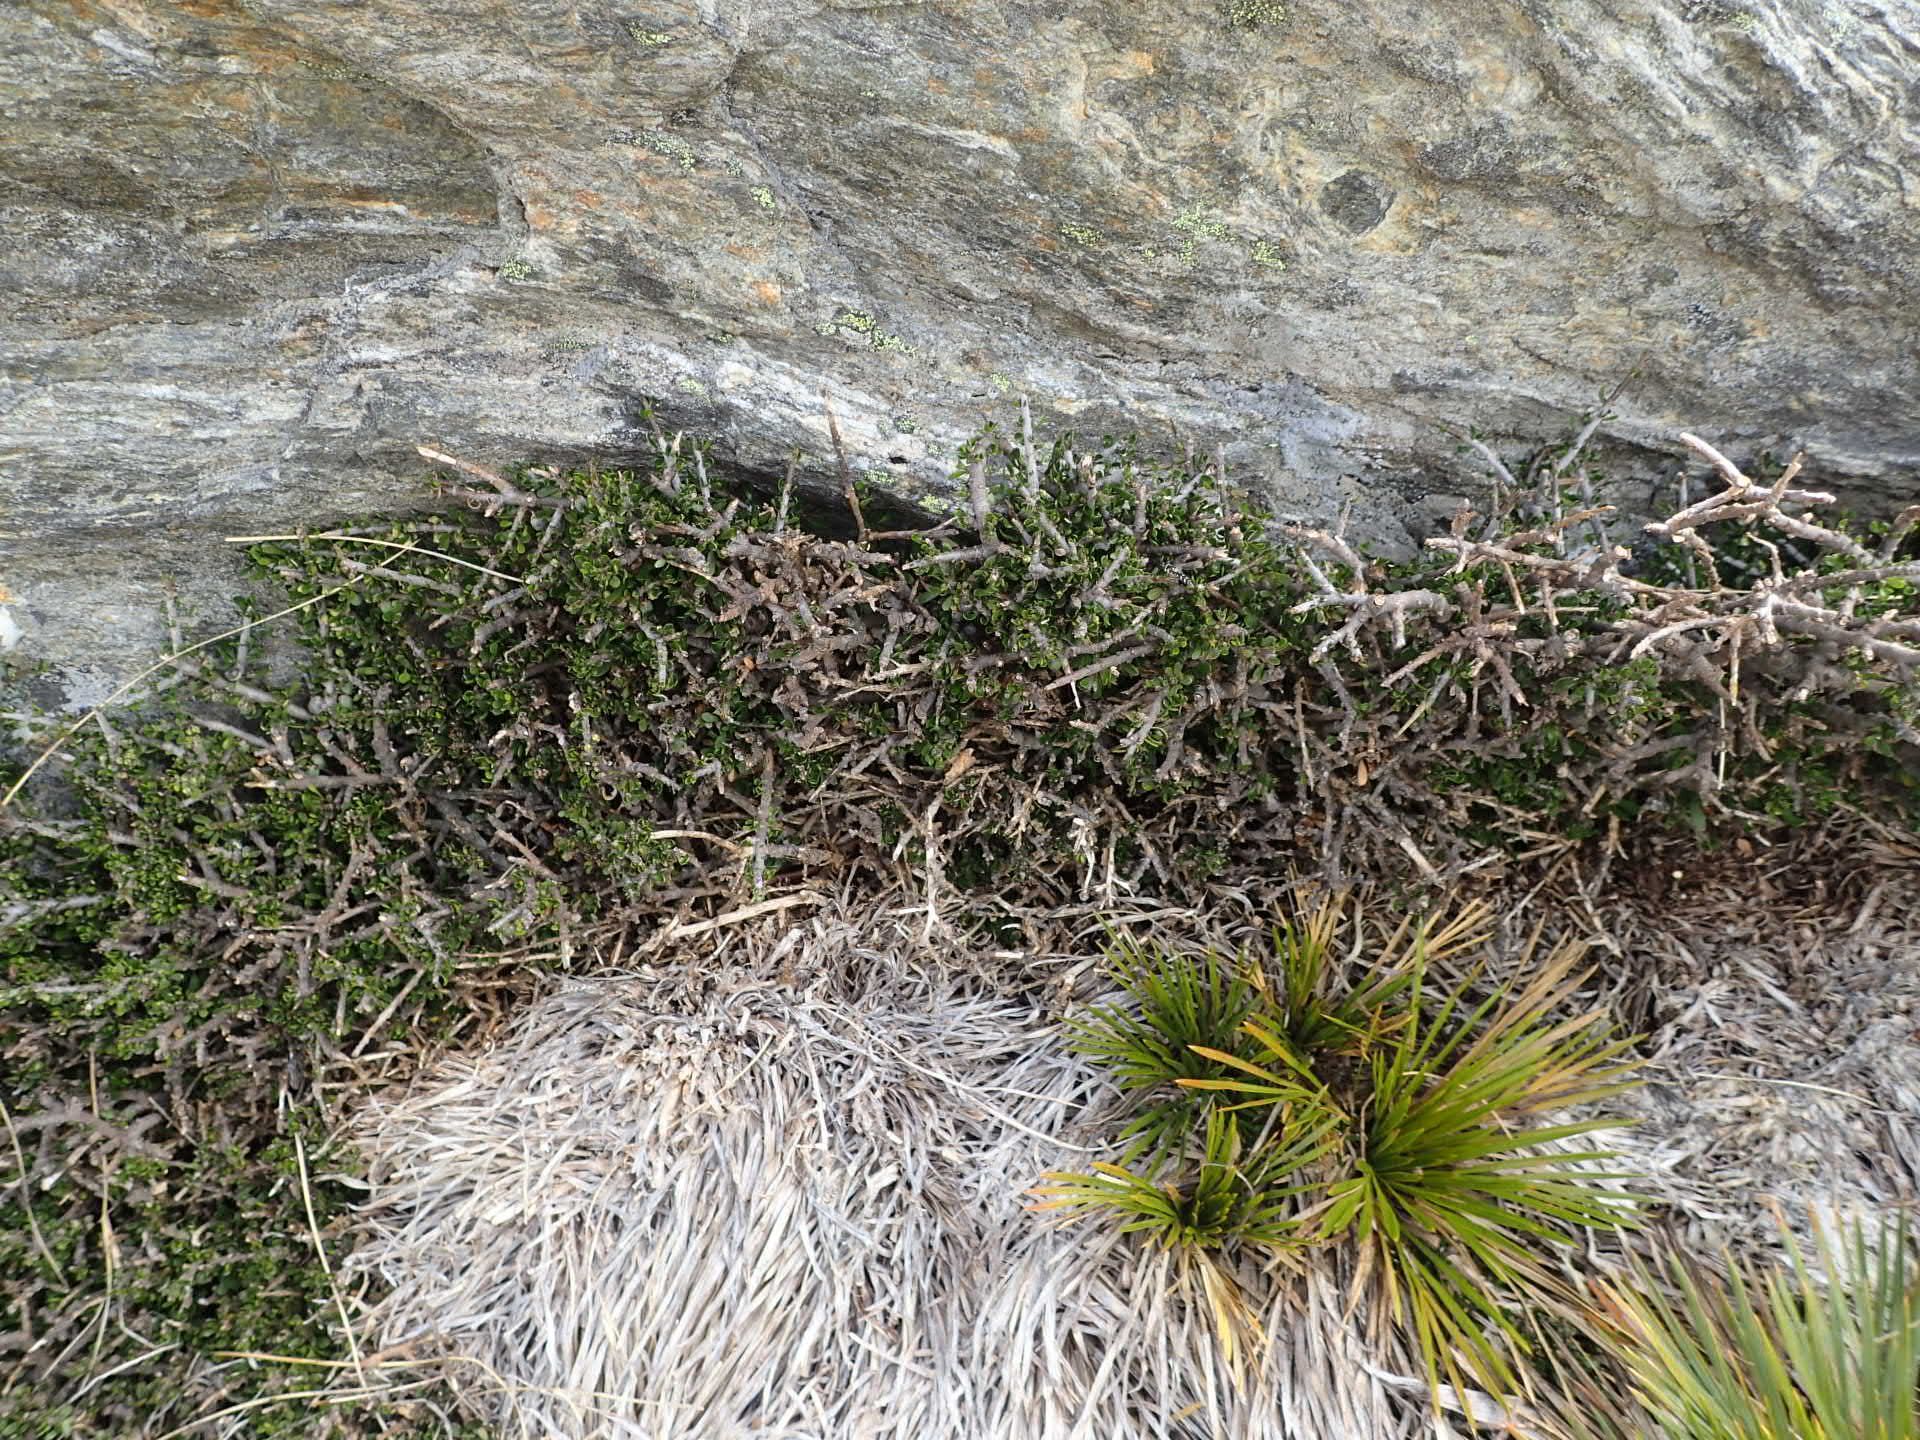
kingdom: Plantae
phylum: Tracheophyta
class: Magnoliopsida
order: Malpighiales
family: Violaceae
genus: Melicytus
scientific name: Melicytus alpinus
